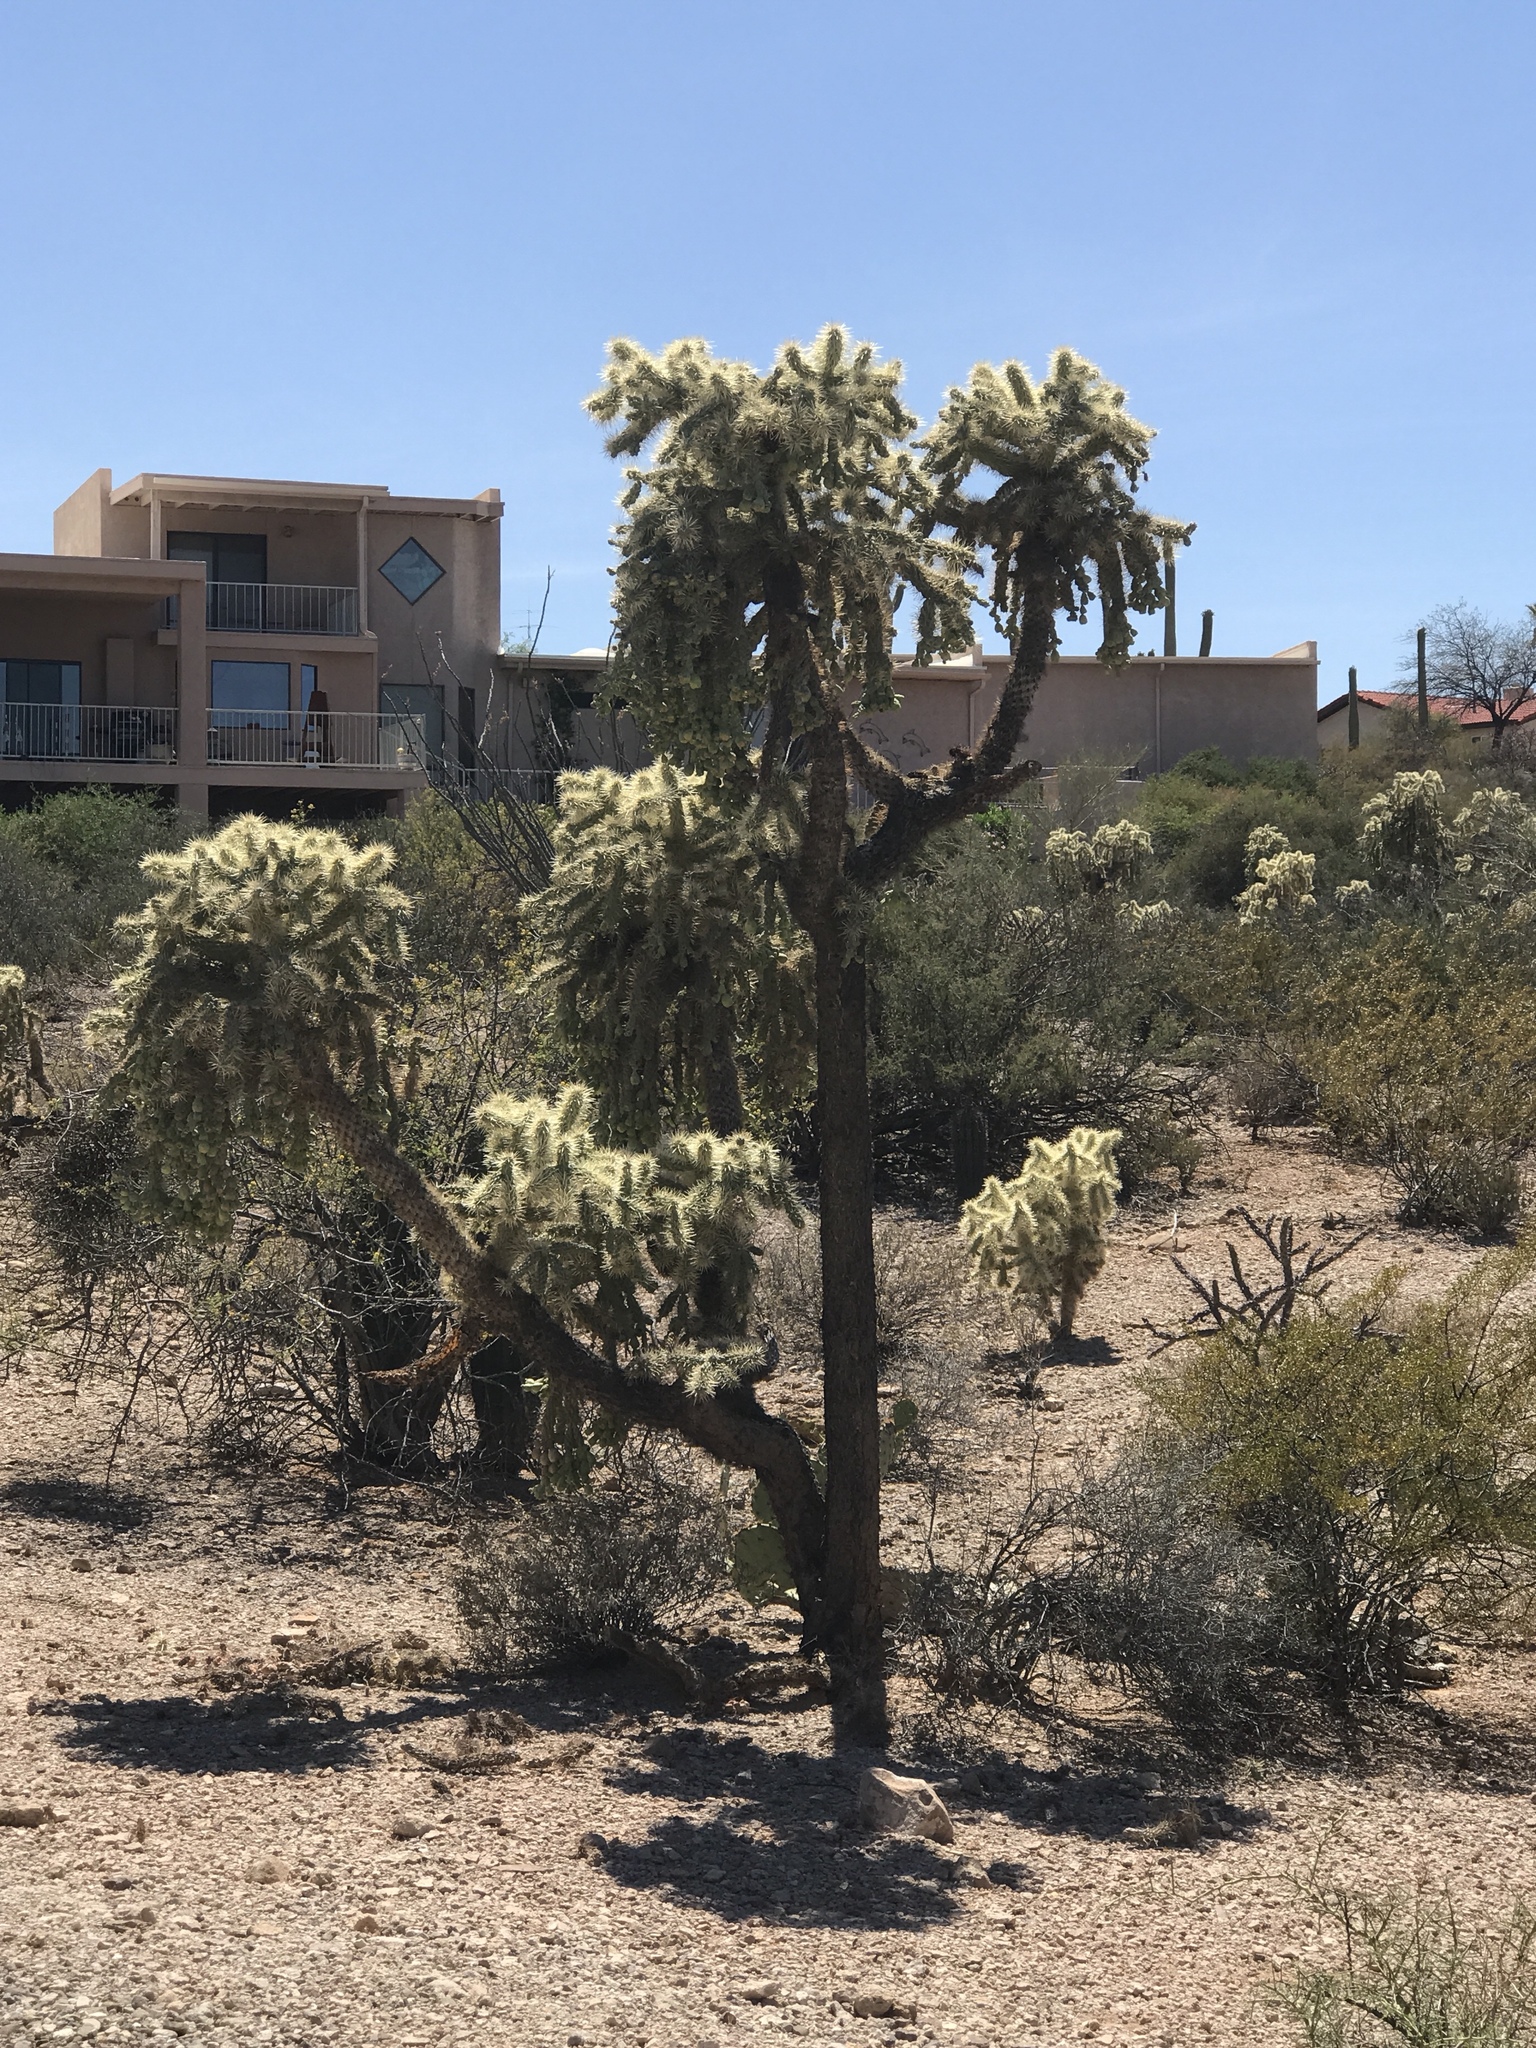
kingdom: Plantae
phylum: Tracheophyta
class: Magnoliopsida
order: Caryophyllales
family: Cactaceae
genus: Cylindropuntia
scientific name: Cylindropuntia fulgida
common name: Jumping cholla
